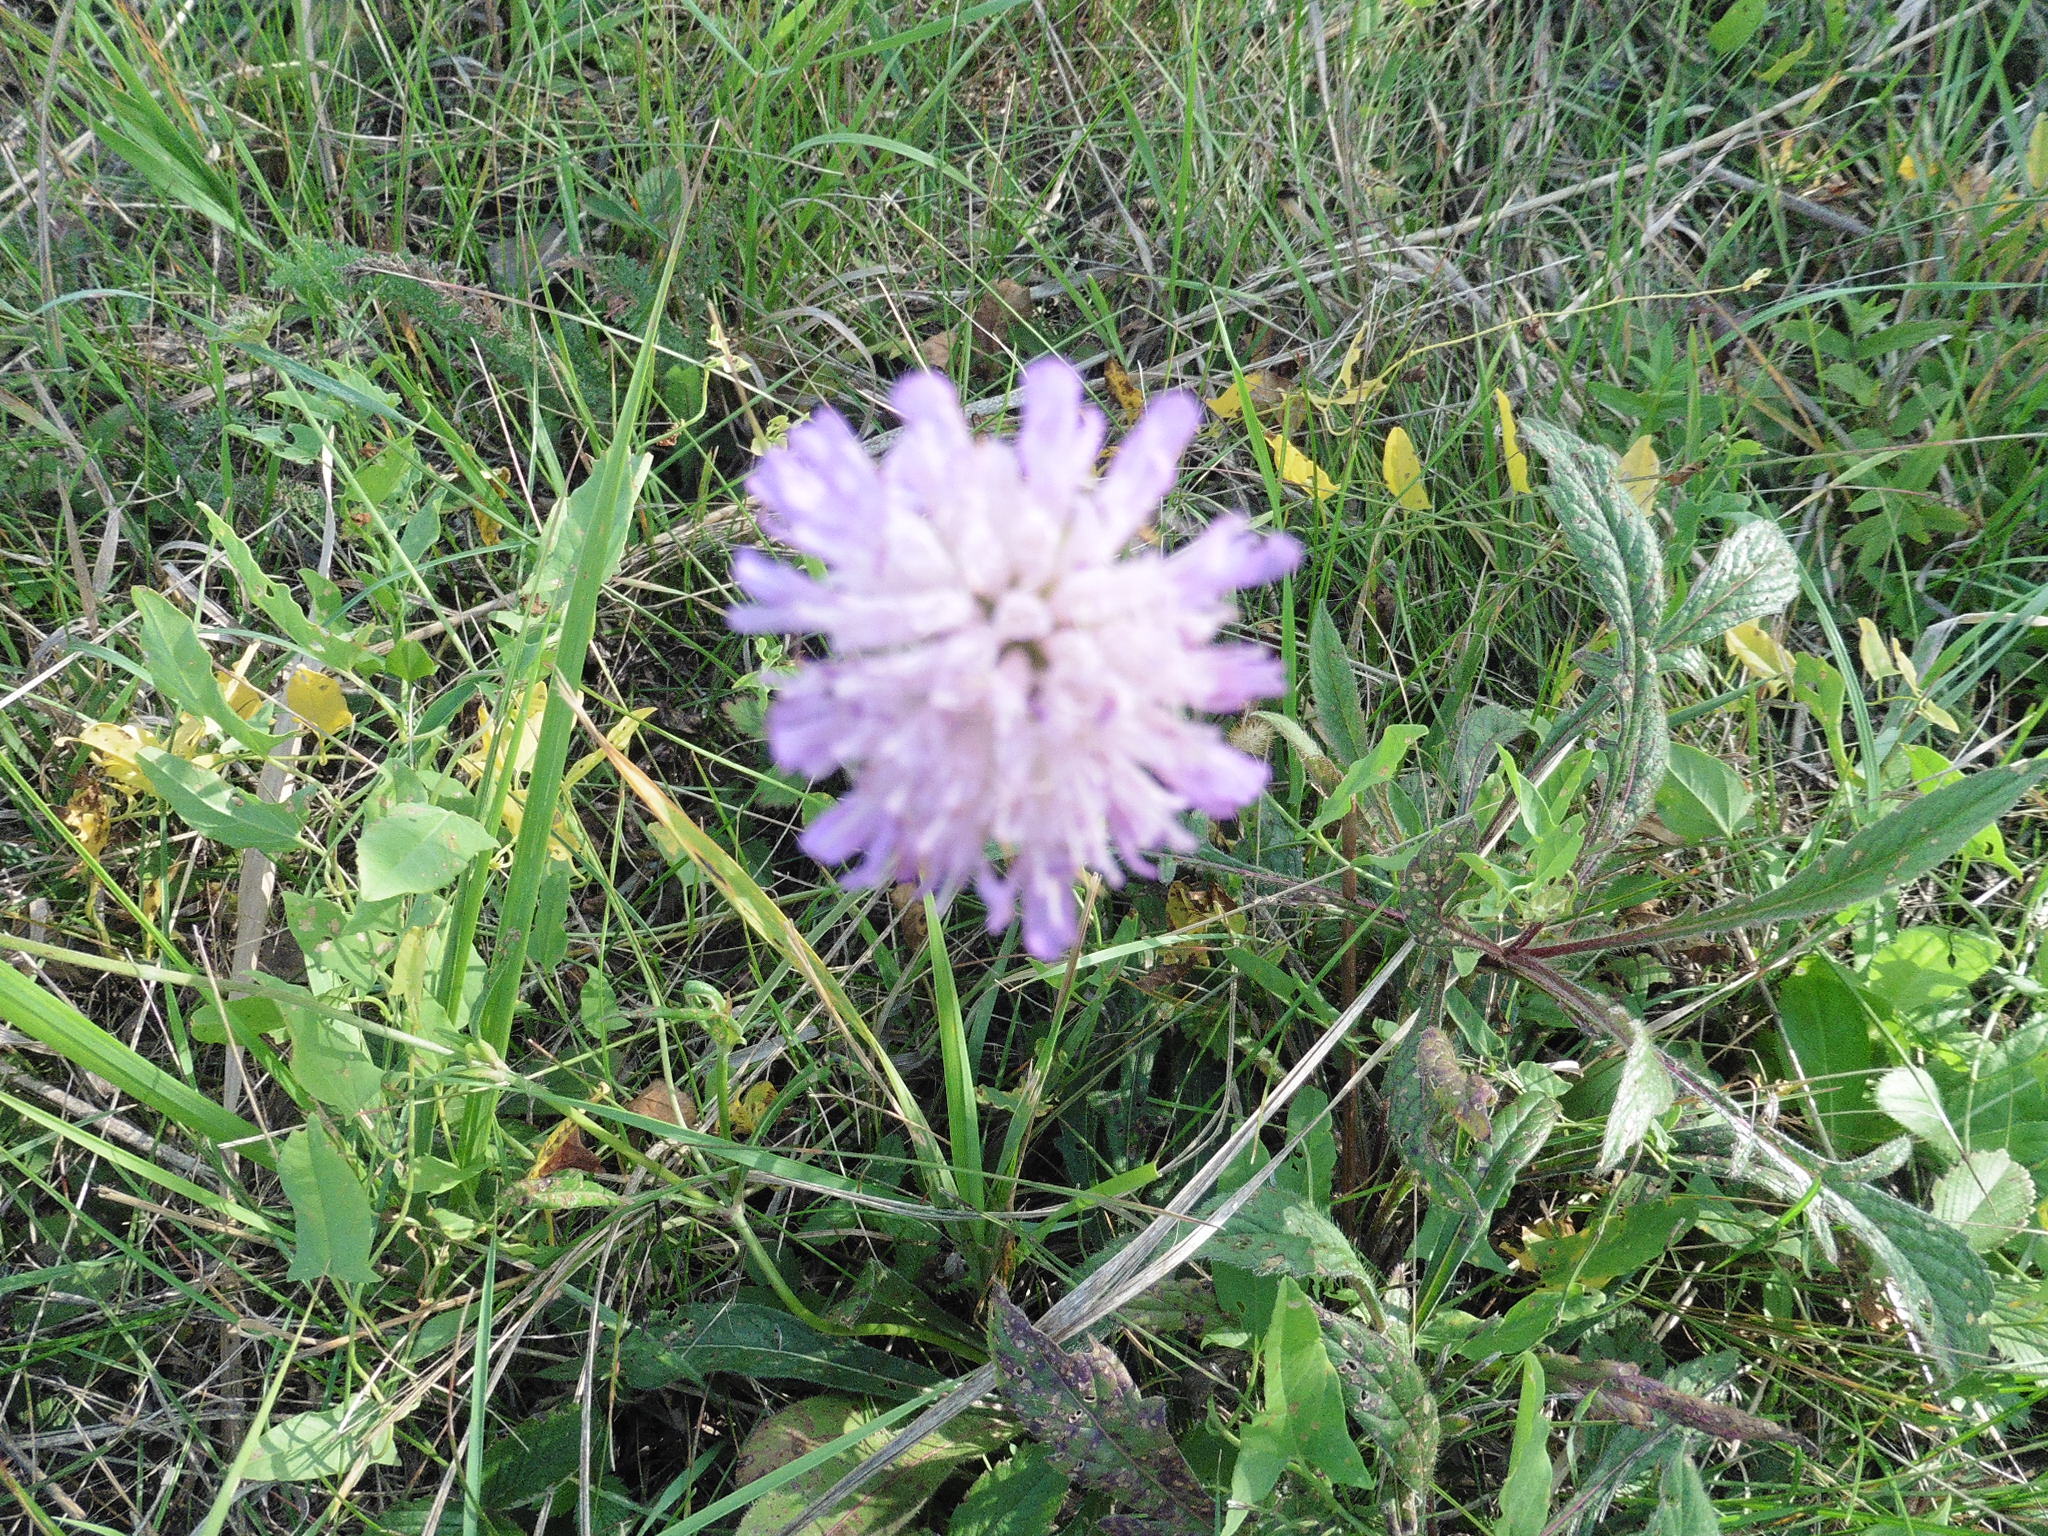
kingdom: Plantae
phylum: Tracheophyta
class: Magnoliopsida
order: Dipsacales
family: Caprifoliaceae
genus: Knautia
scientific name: Knautia arvensis
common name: Field scabiosa
